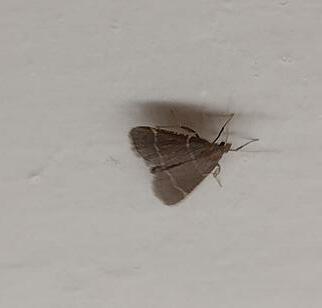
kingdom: Animalia
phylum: Arthropoda
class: Insecta
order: Lepidoptera
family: Pyralidae
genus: Hypsopygia
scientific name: Hypsopygia glaucinalis
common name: Double-striped tabby
